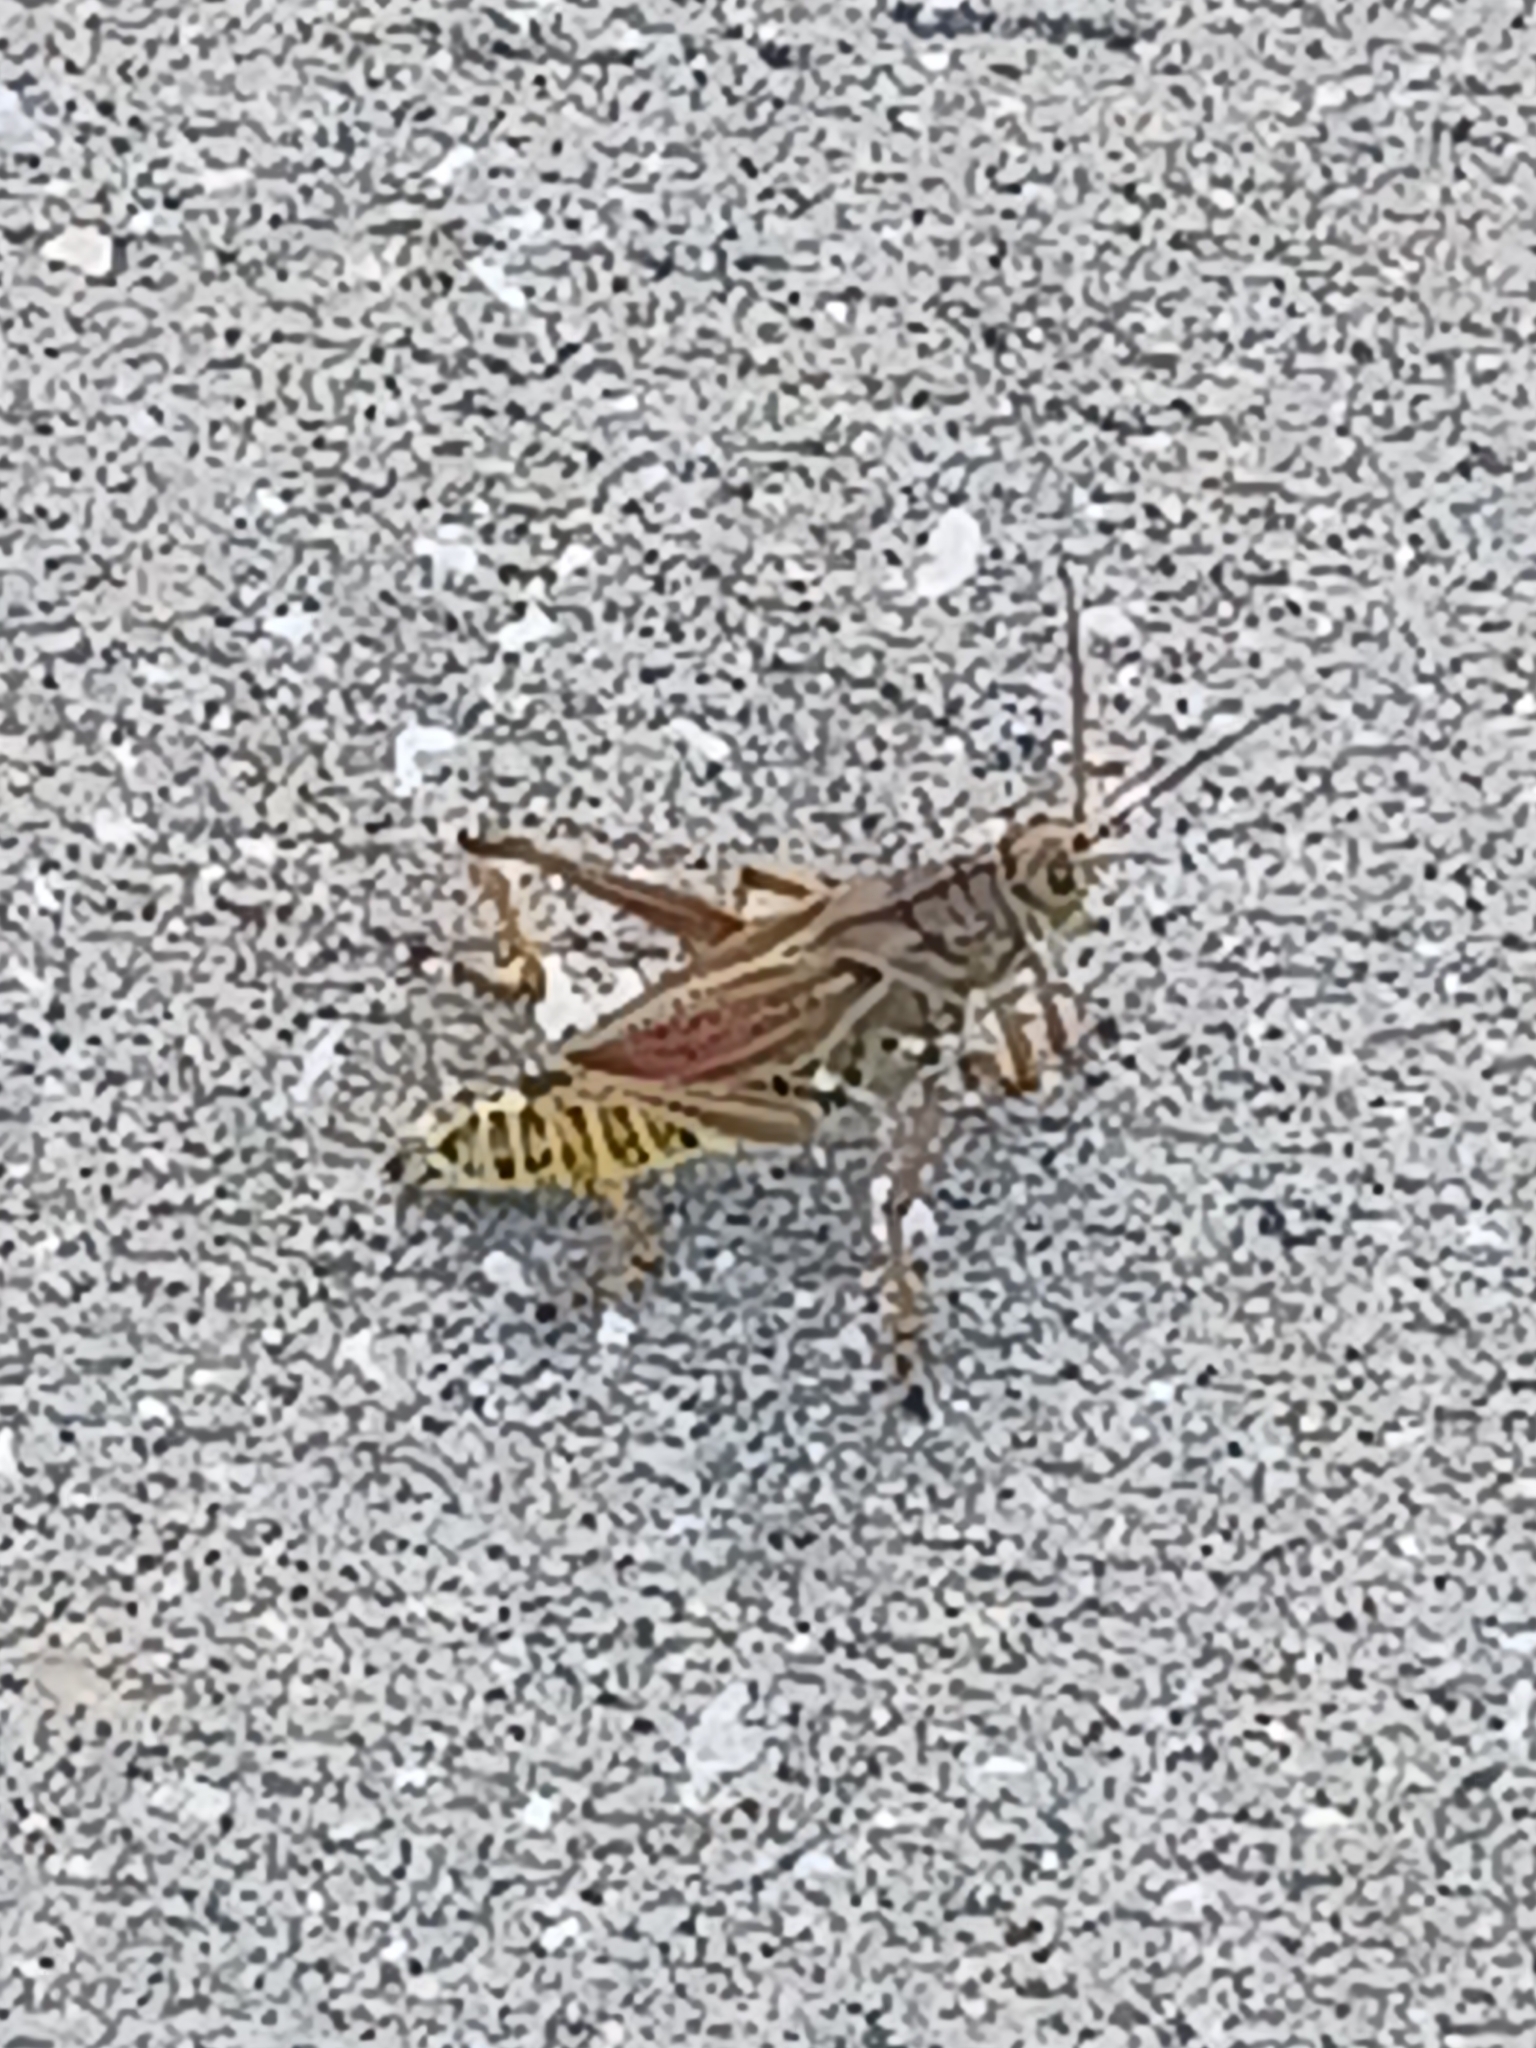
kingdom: Animalia
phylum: Arthropoda
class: Insecta
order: Orthoptera
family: Romaleidae
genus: Romalea
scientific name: Romalea microptera
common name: Eastern lubber grasshopper
